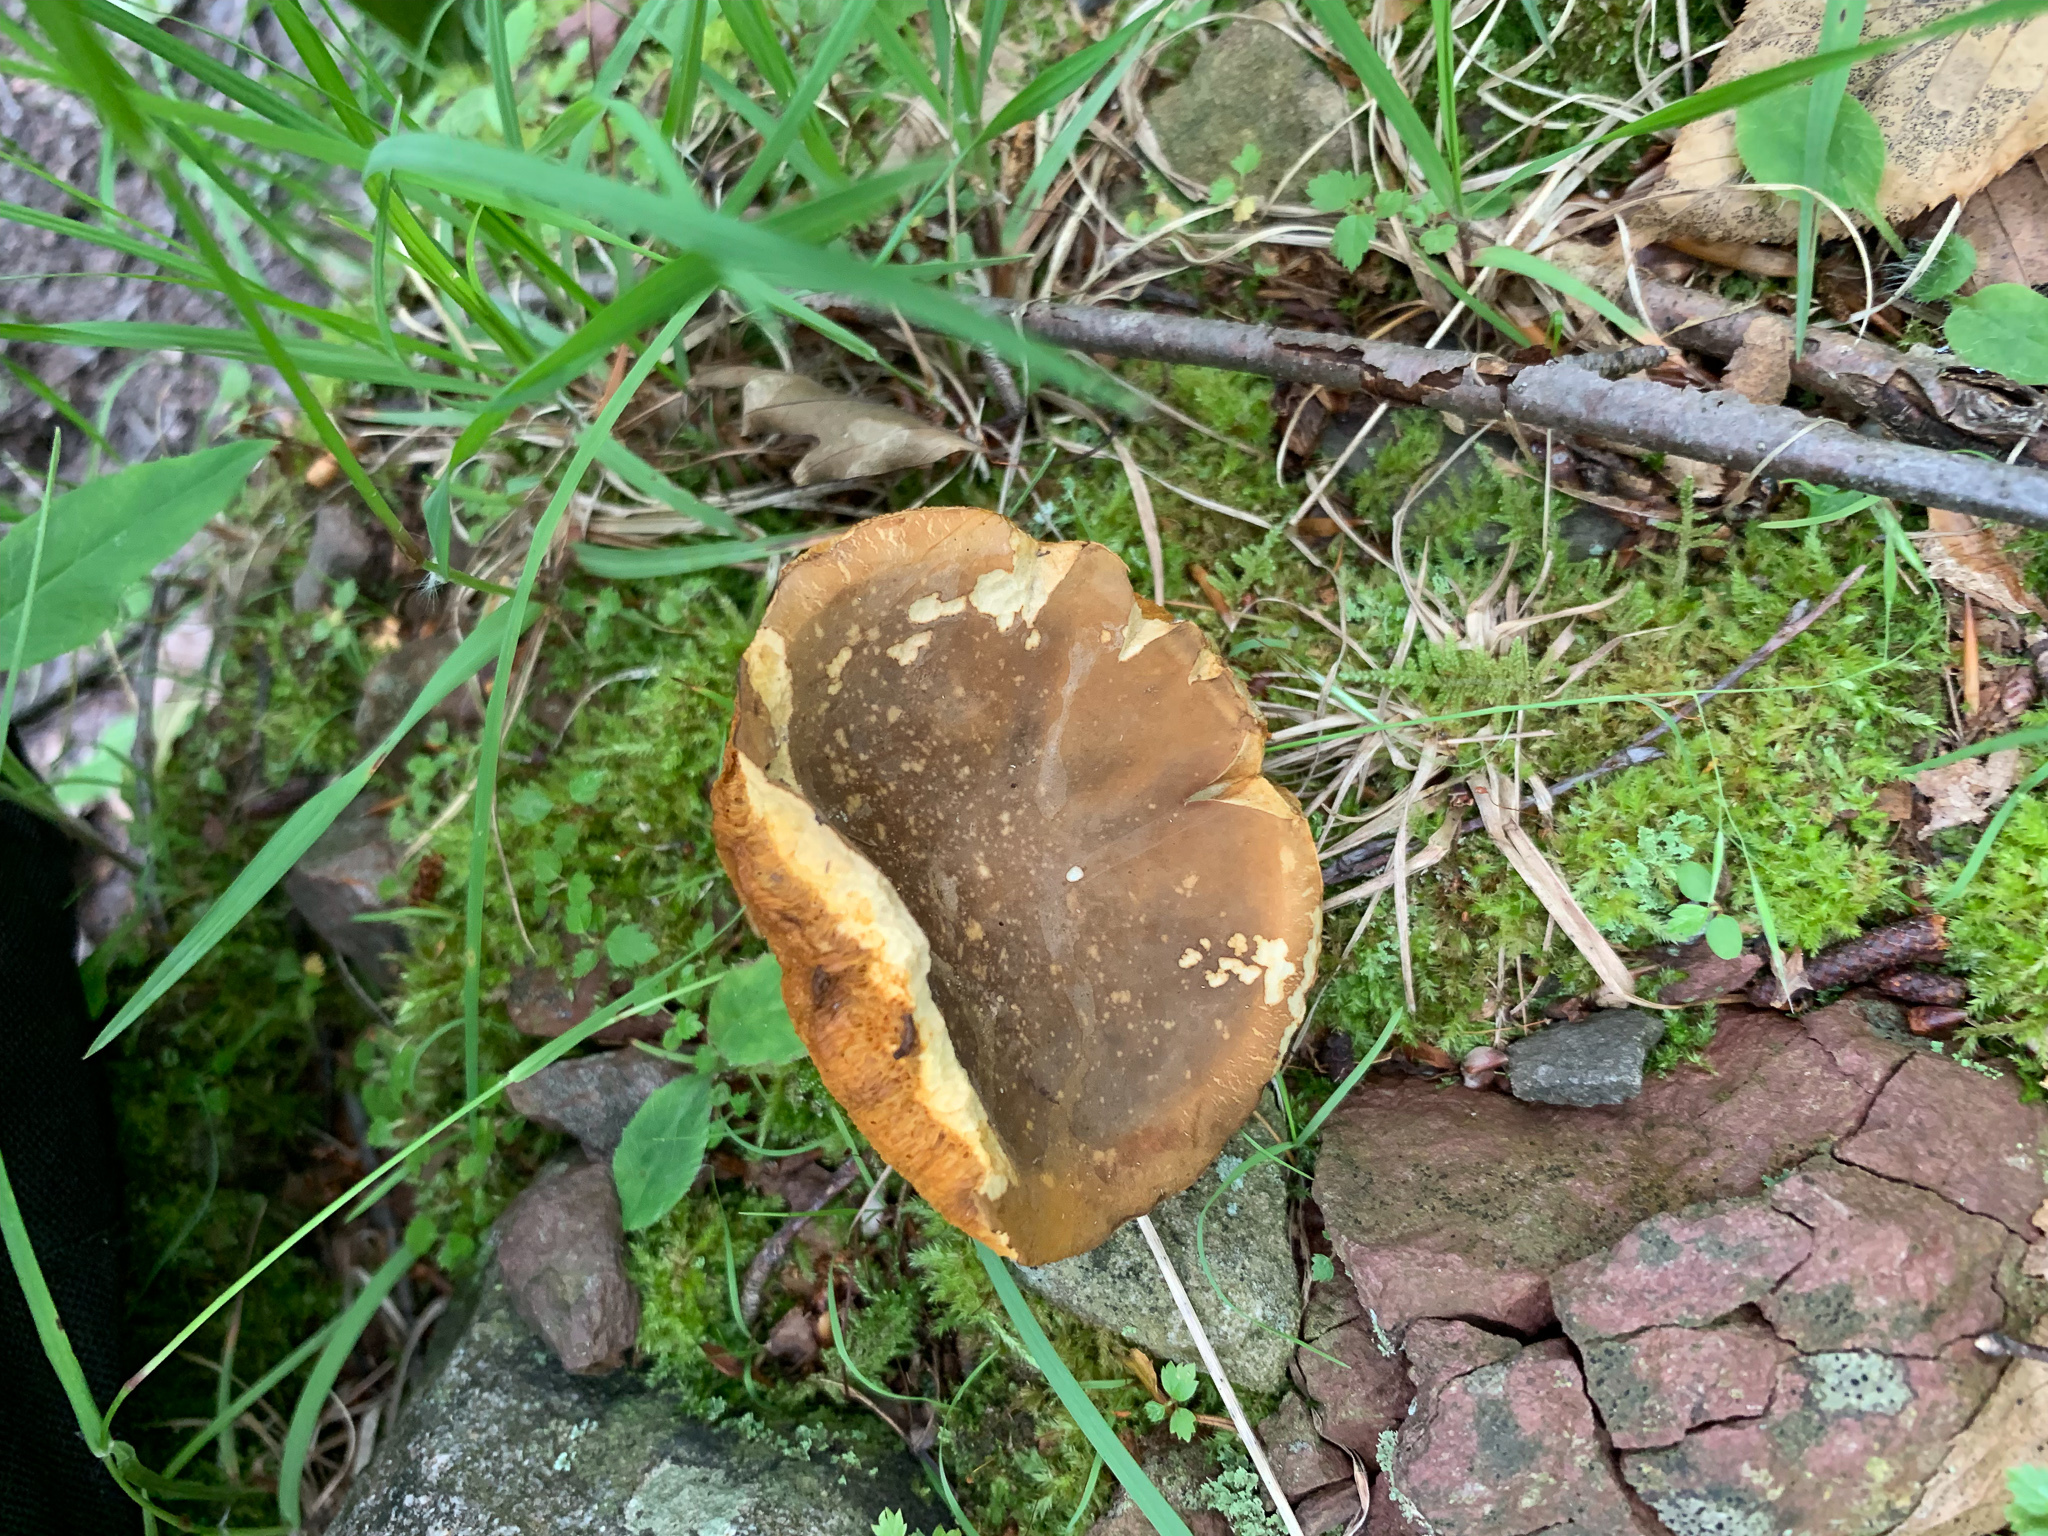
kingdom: Fungi
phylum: Basidiomycota
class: Agaricomycetes
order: Boletales
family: Boletaceae
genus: Xanthoconium
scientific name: Xanthoconium affine
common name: Spotted bolete
